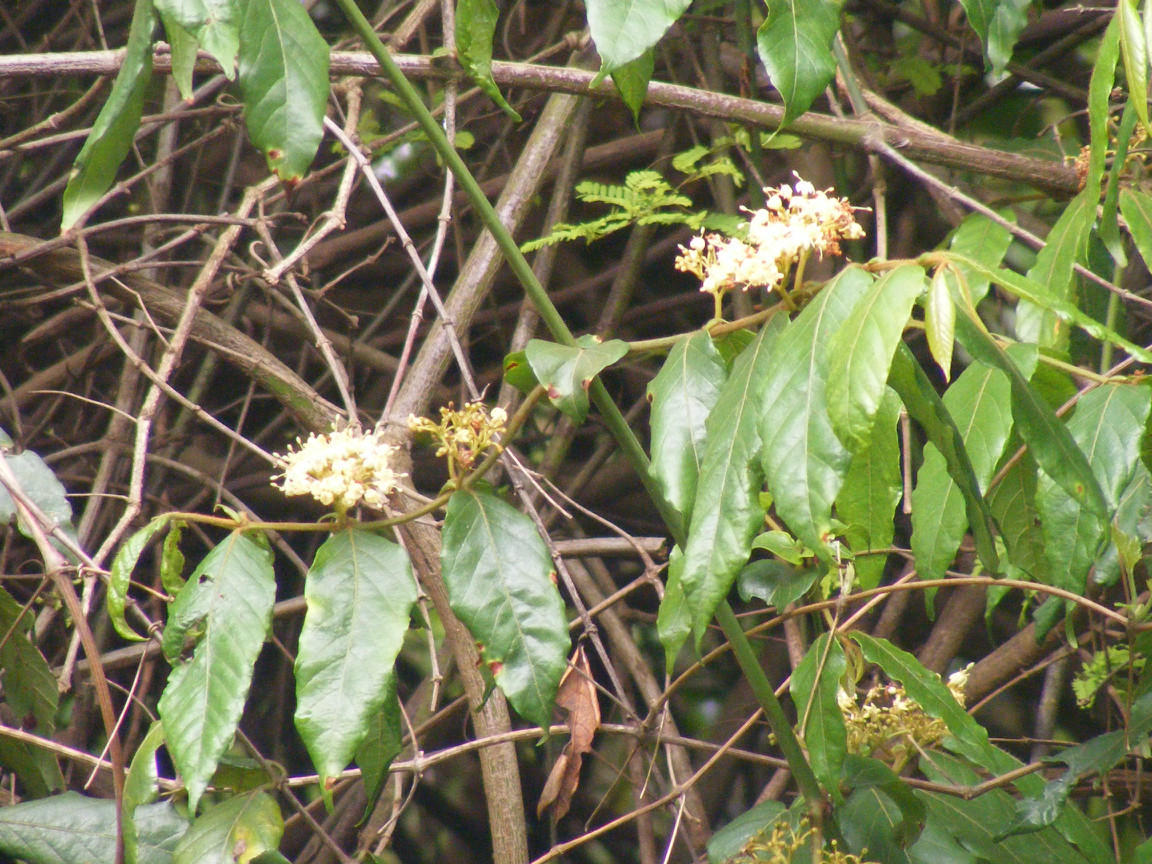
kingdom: Plantae
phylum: Tracheophyta
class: Magnoliopsida
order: Gentianales
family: Rubiaceae
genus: Keetia
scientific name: Keetia gueinzii
